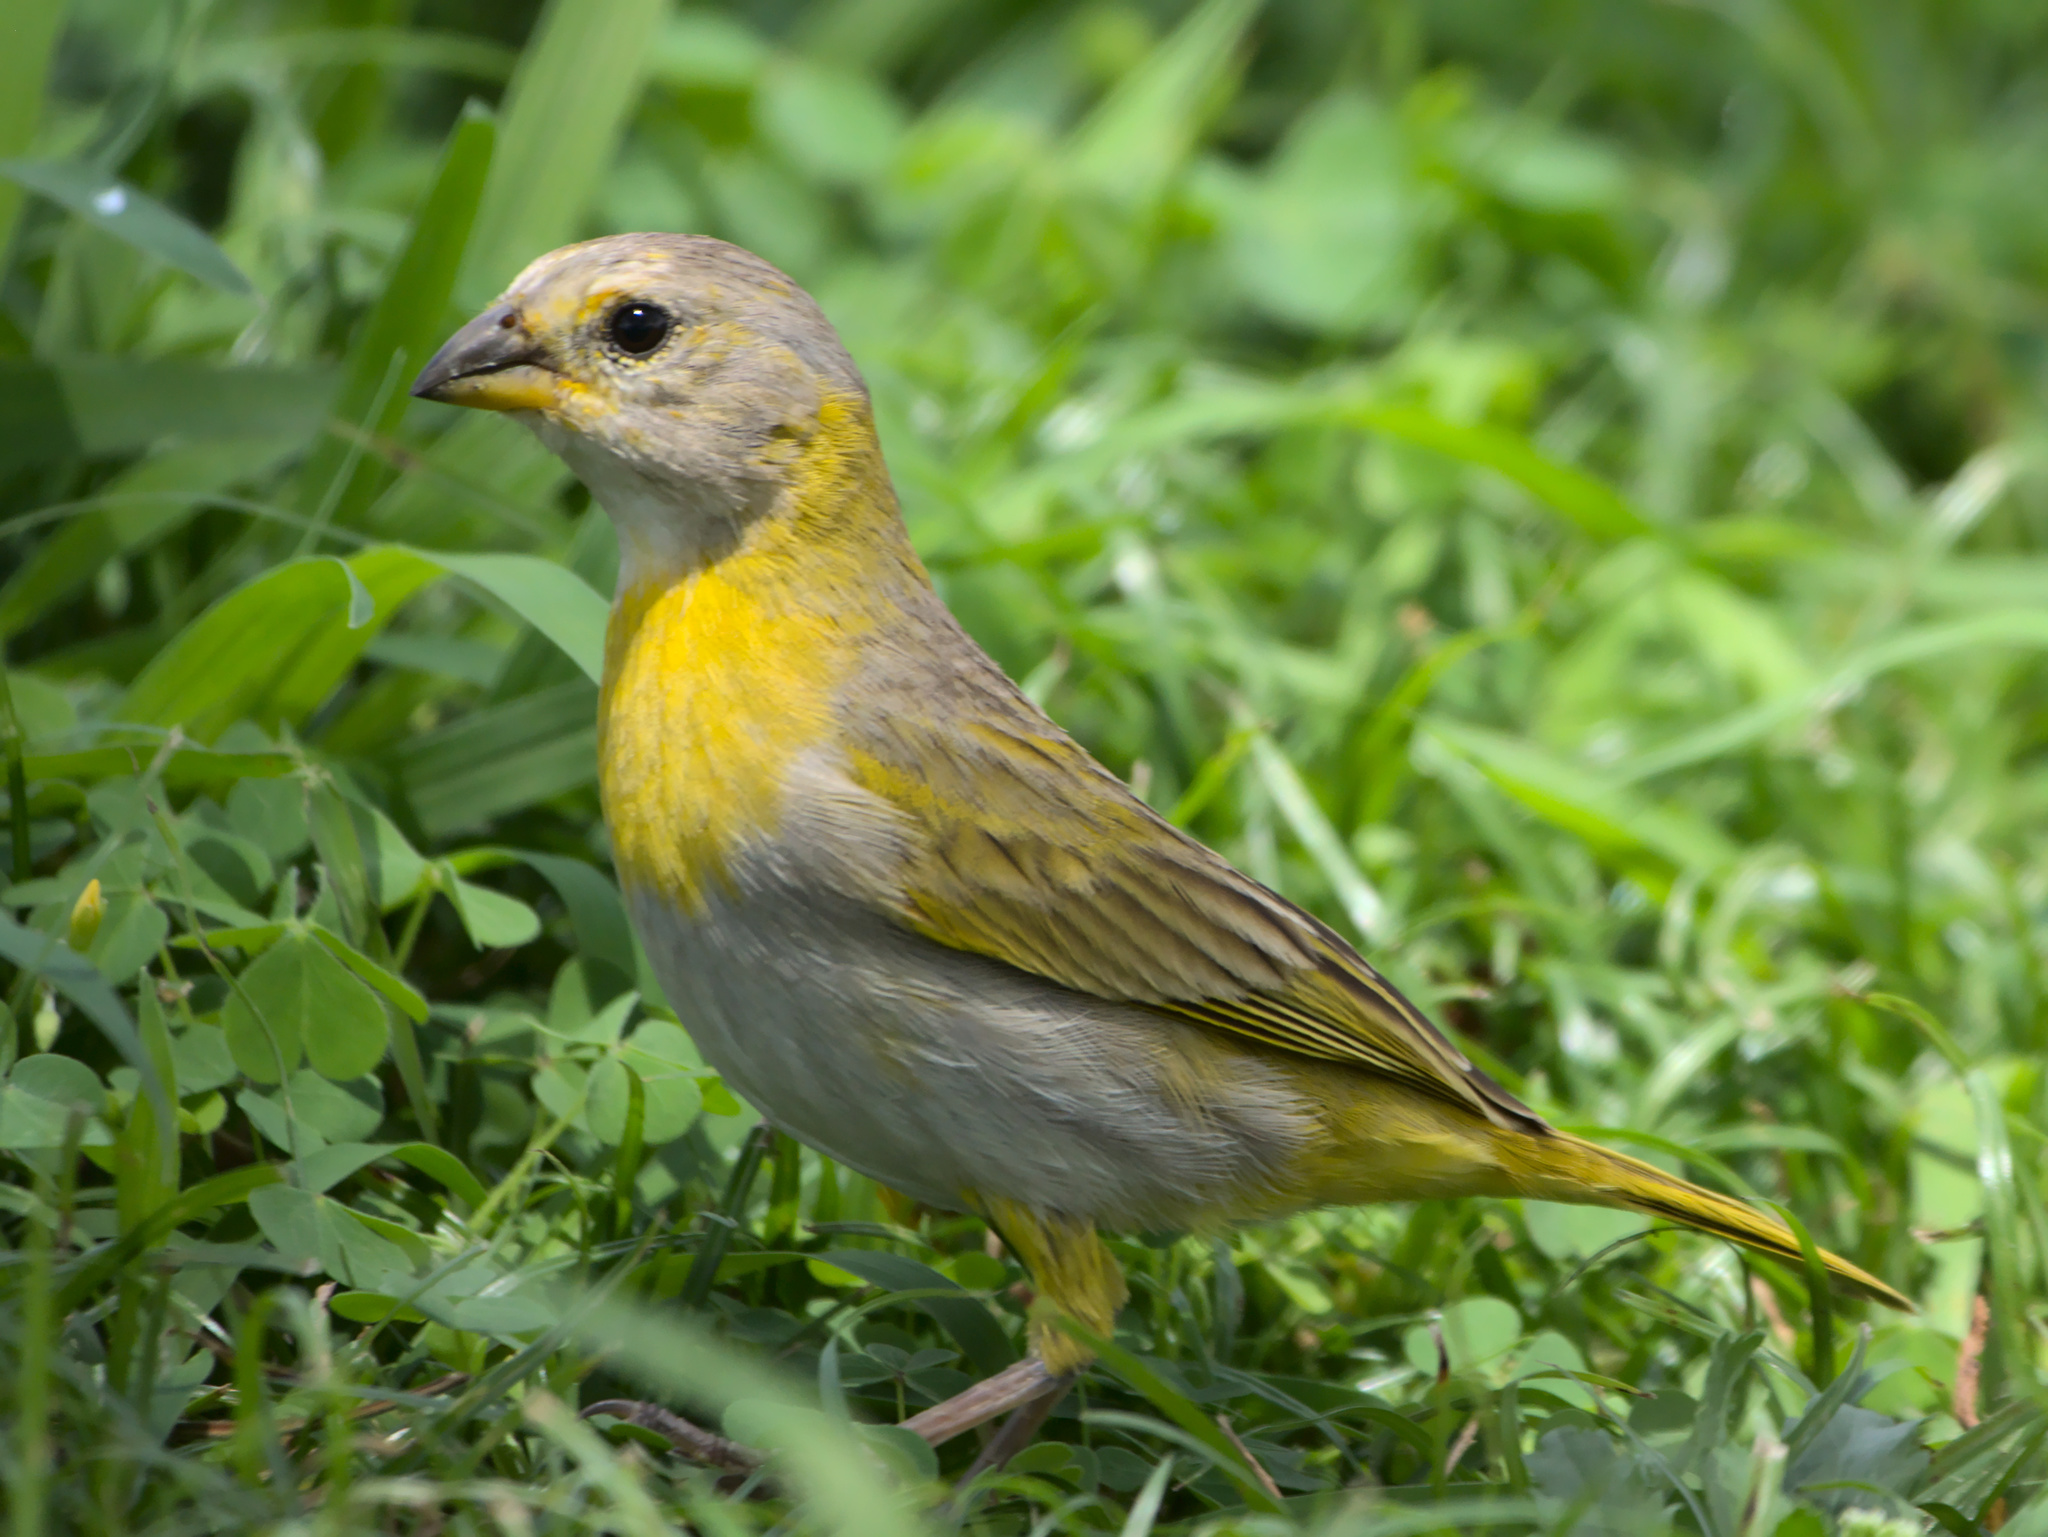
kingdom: Animalia
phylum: Chordata
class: Aves
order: Passeriformes
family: Thraupidae
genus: Sicalis
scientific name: Sicalis flaveola
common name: Saffron finch
